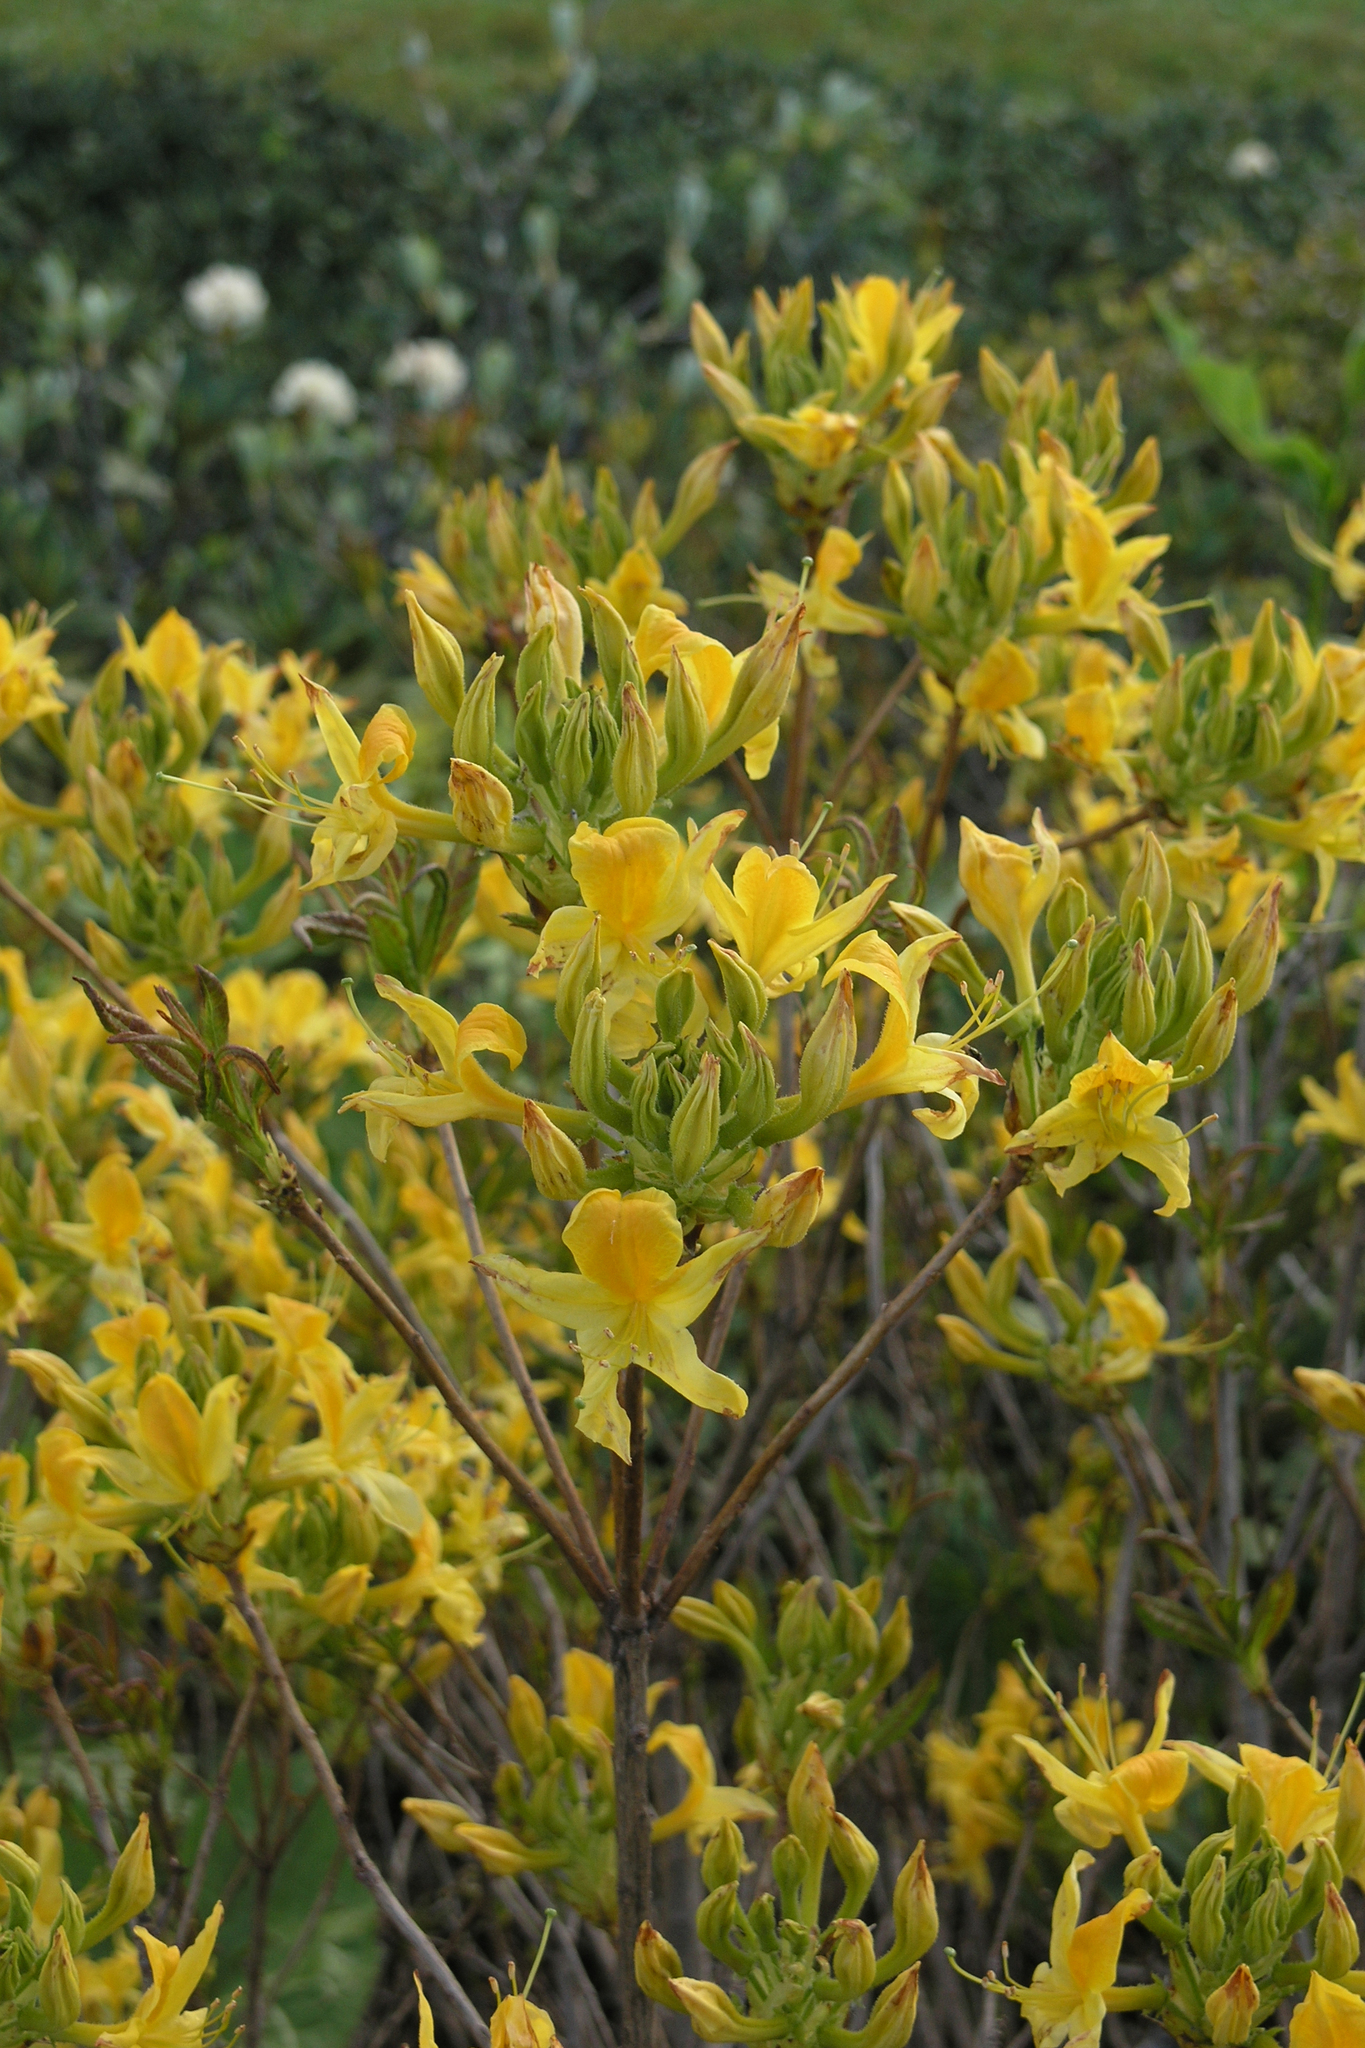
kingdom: Plantae
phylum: Tracheophyta
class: Magnoliopsida
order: Ericales
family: Ericaceae
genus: Rhododendron
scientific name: Rhododendron luteum
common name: Yellow azalea
